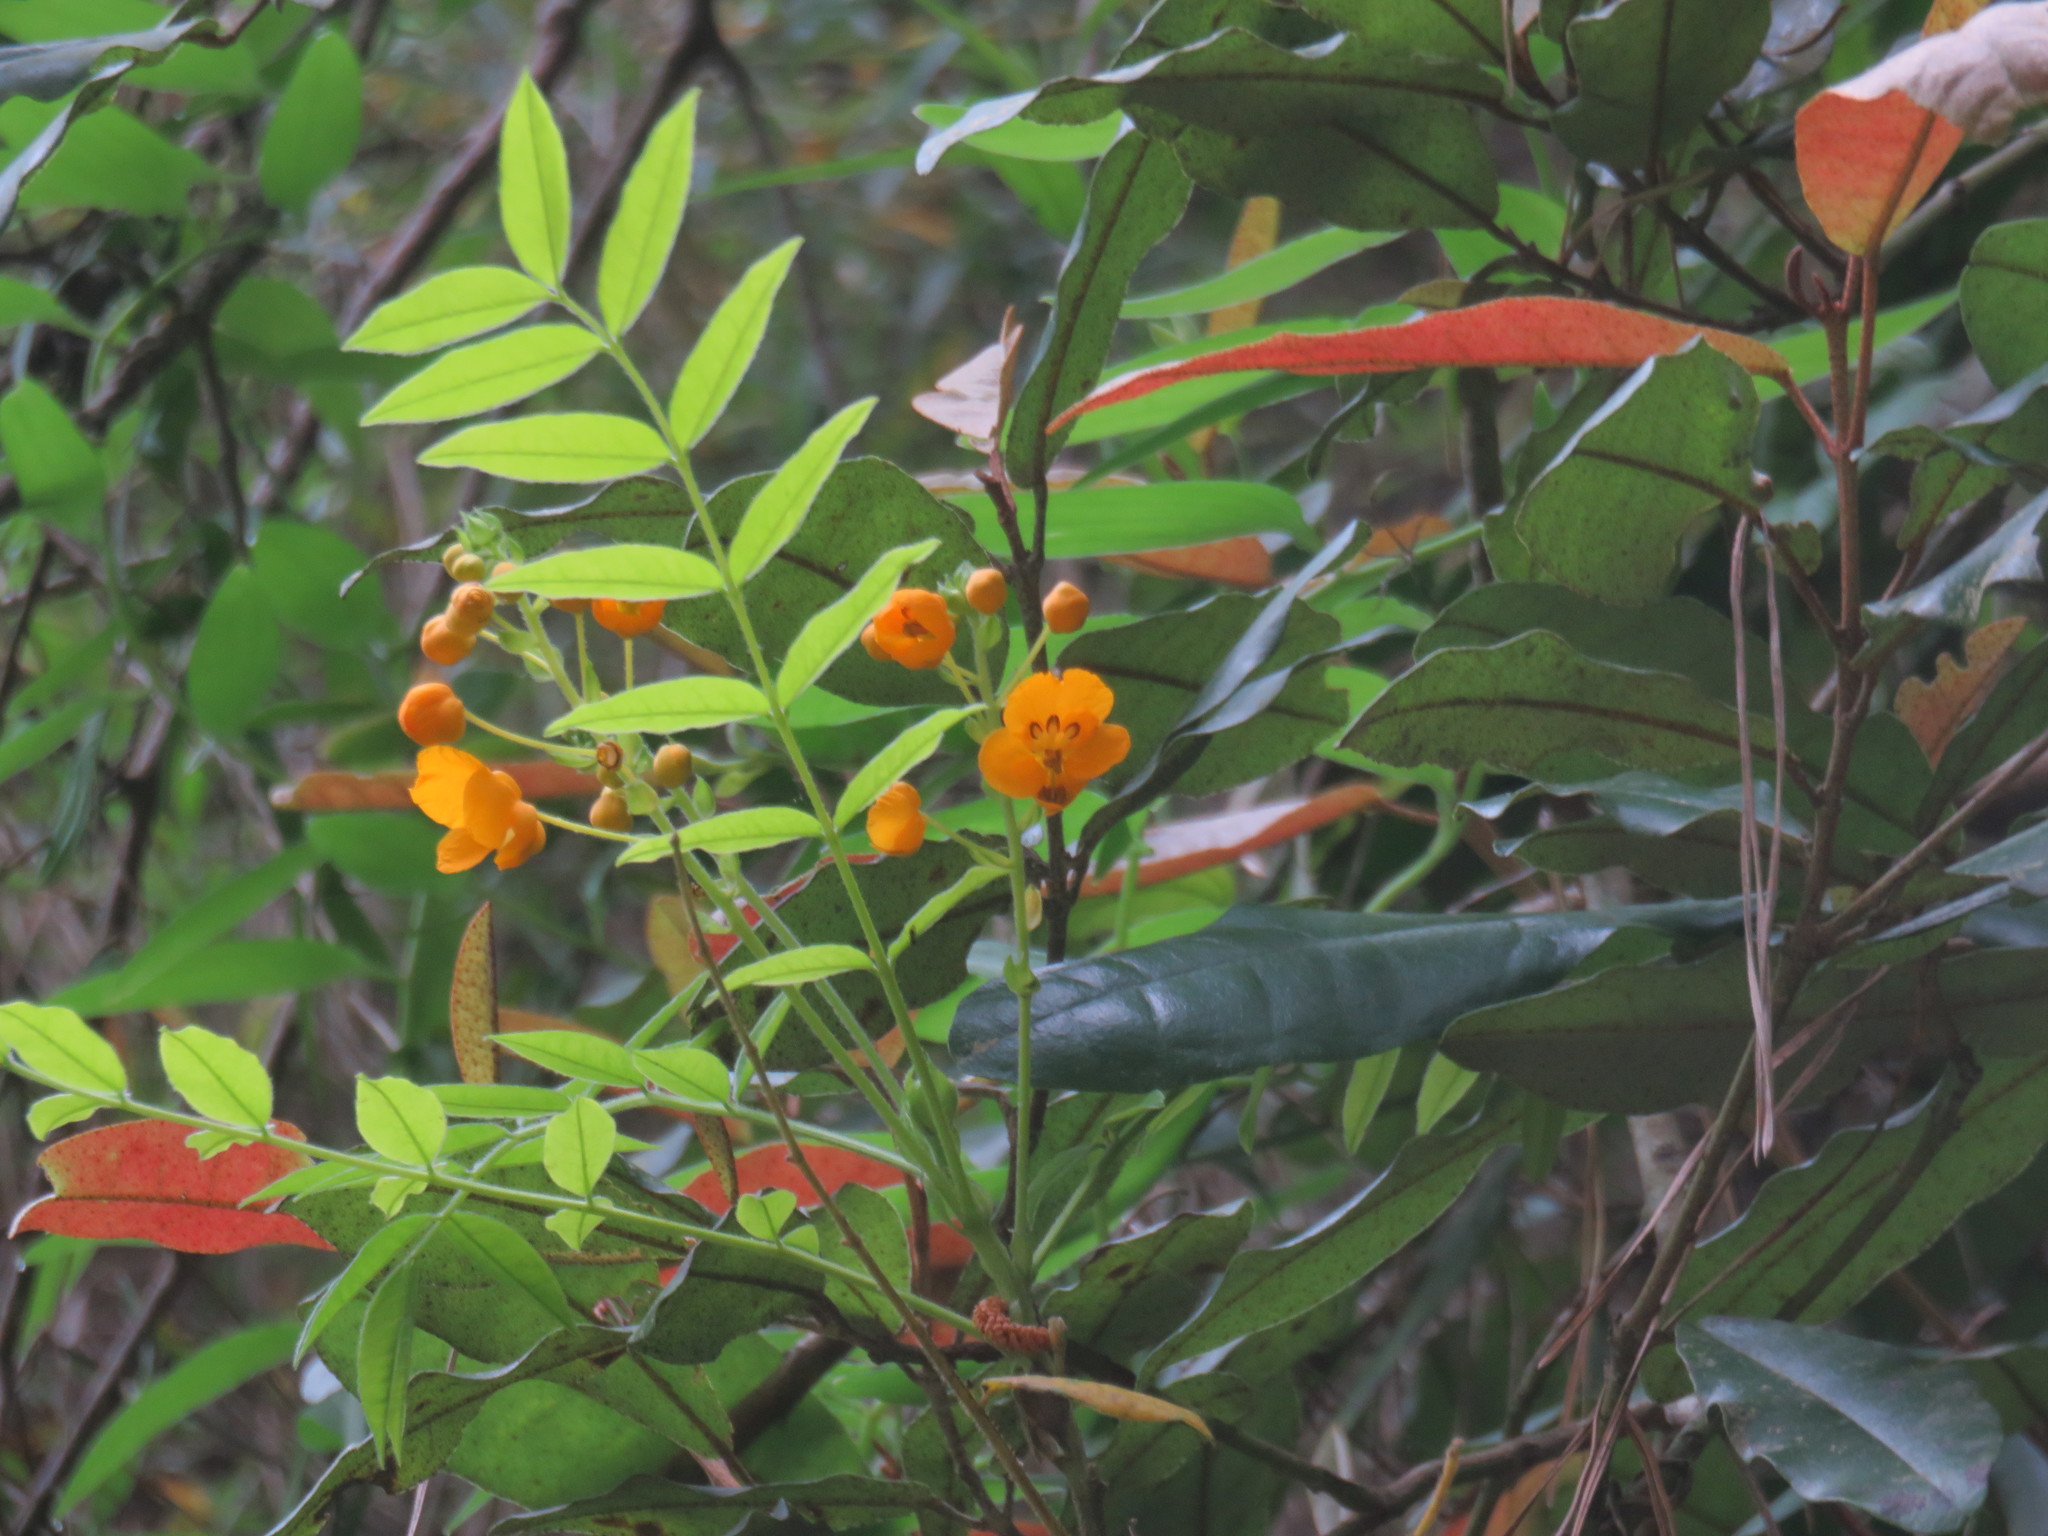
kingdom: Plantae
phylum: Tracheophyta
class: Magnoliopsida
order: Fabales
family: Fabaceae
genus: Senna
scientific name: Senna stipulacea
